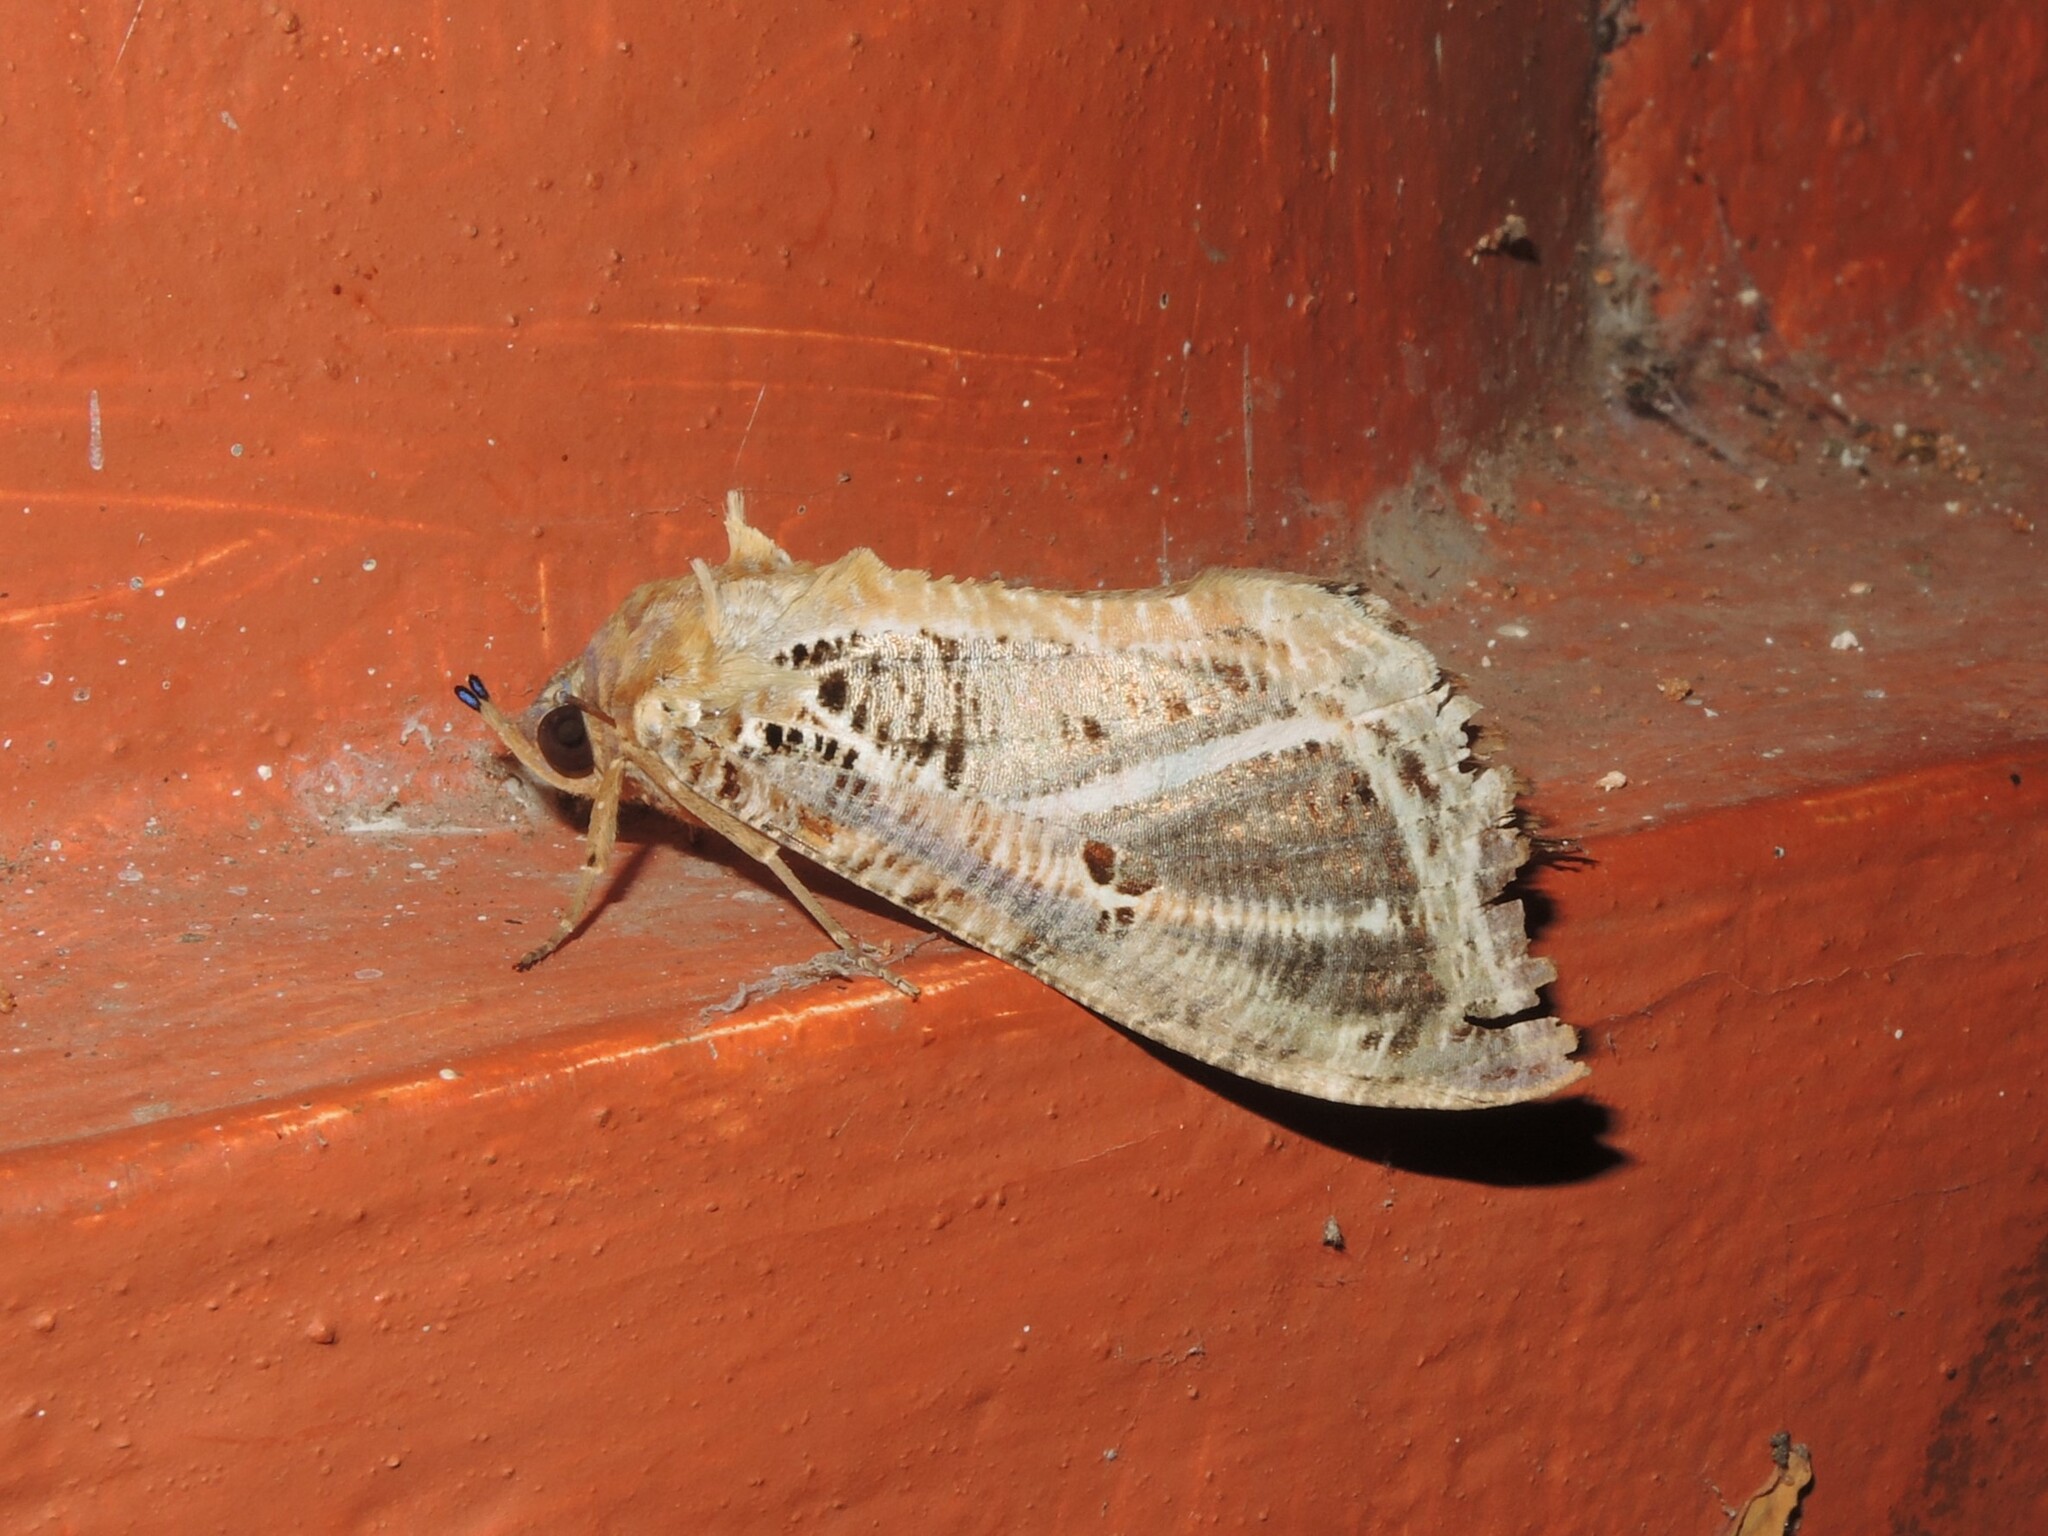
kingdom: Animalia
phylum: Arthropoda
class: Insecta
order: Lepidoptera
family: Erebidae
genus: Eudocima
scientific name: Eudocima materna
